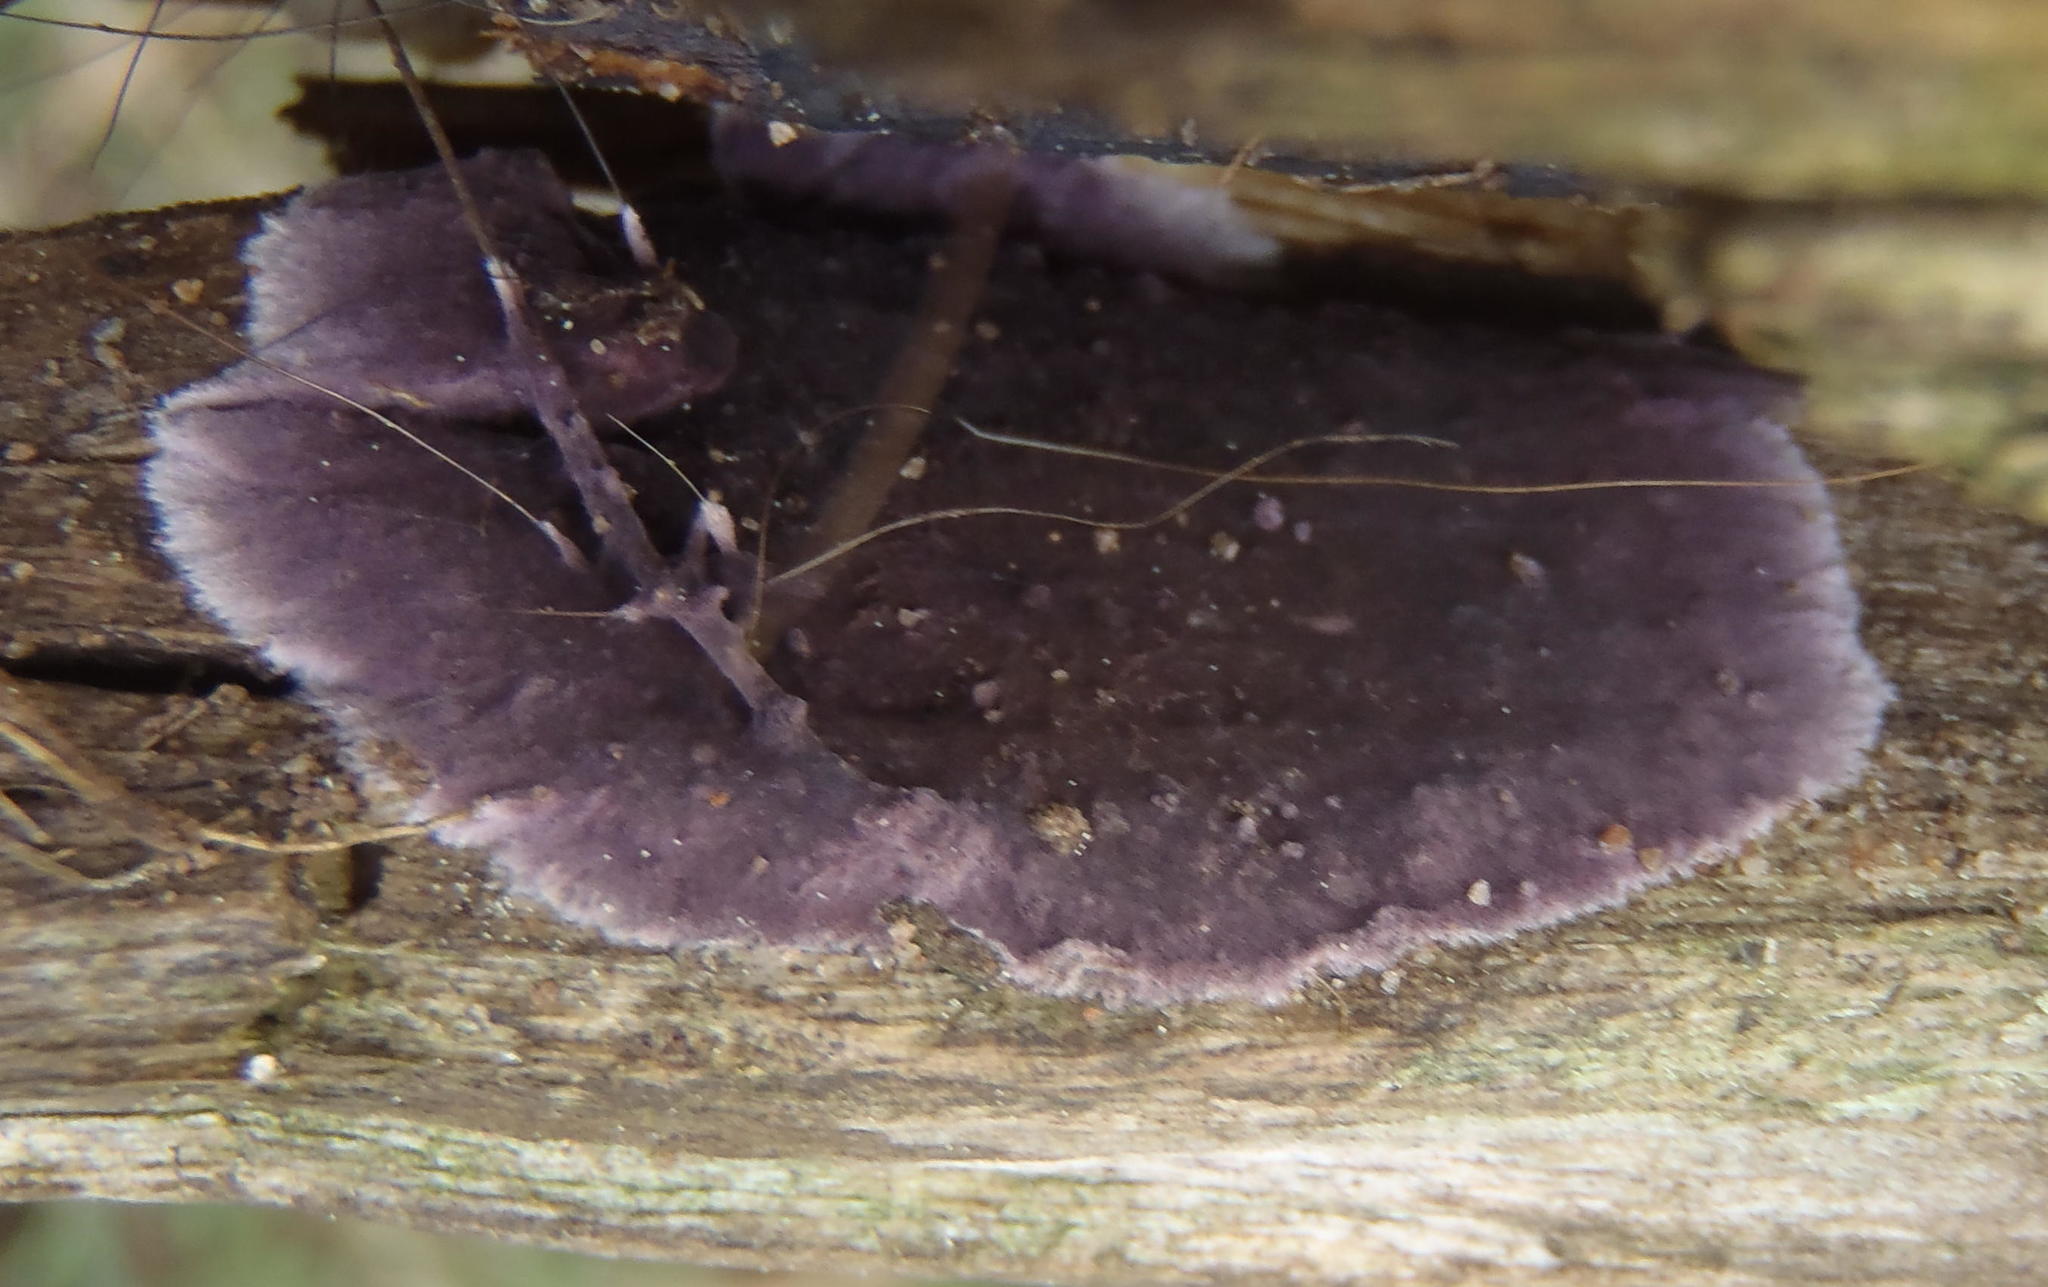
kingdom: Fungi
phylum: Basidiomycota
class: Agaricomycetes
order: Agaricales
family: Cyphellaceae
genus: Chondrostereum
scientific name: Chondrostereum purpureum
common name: Silver leaf disease
